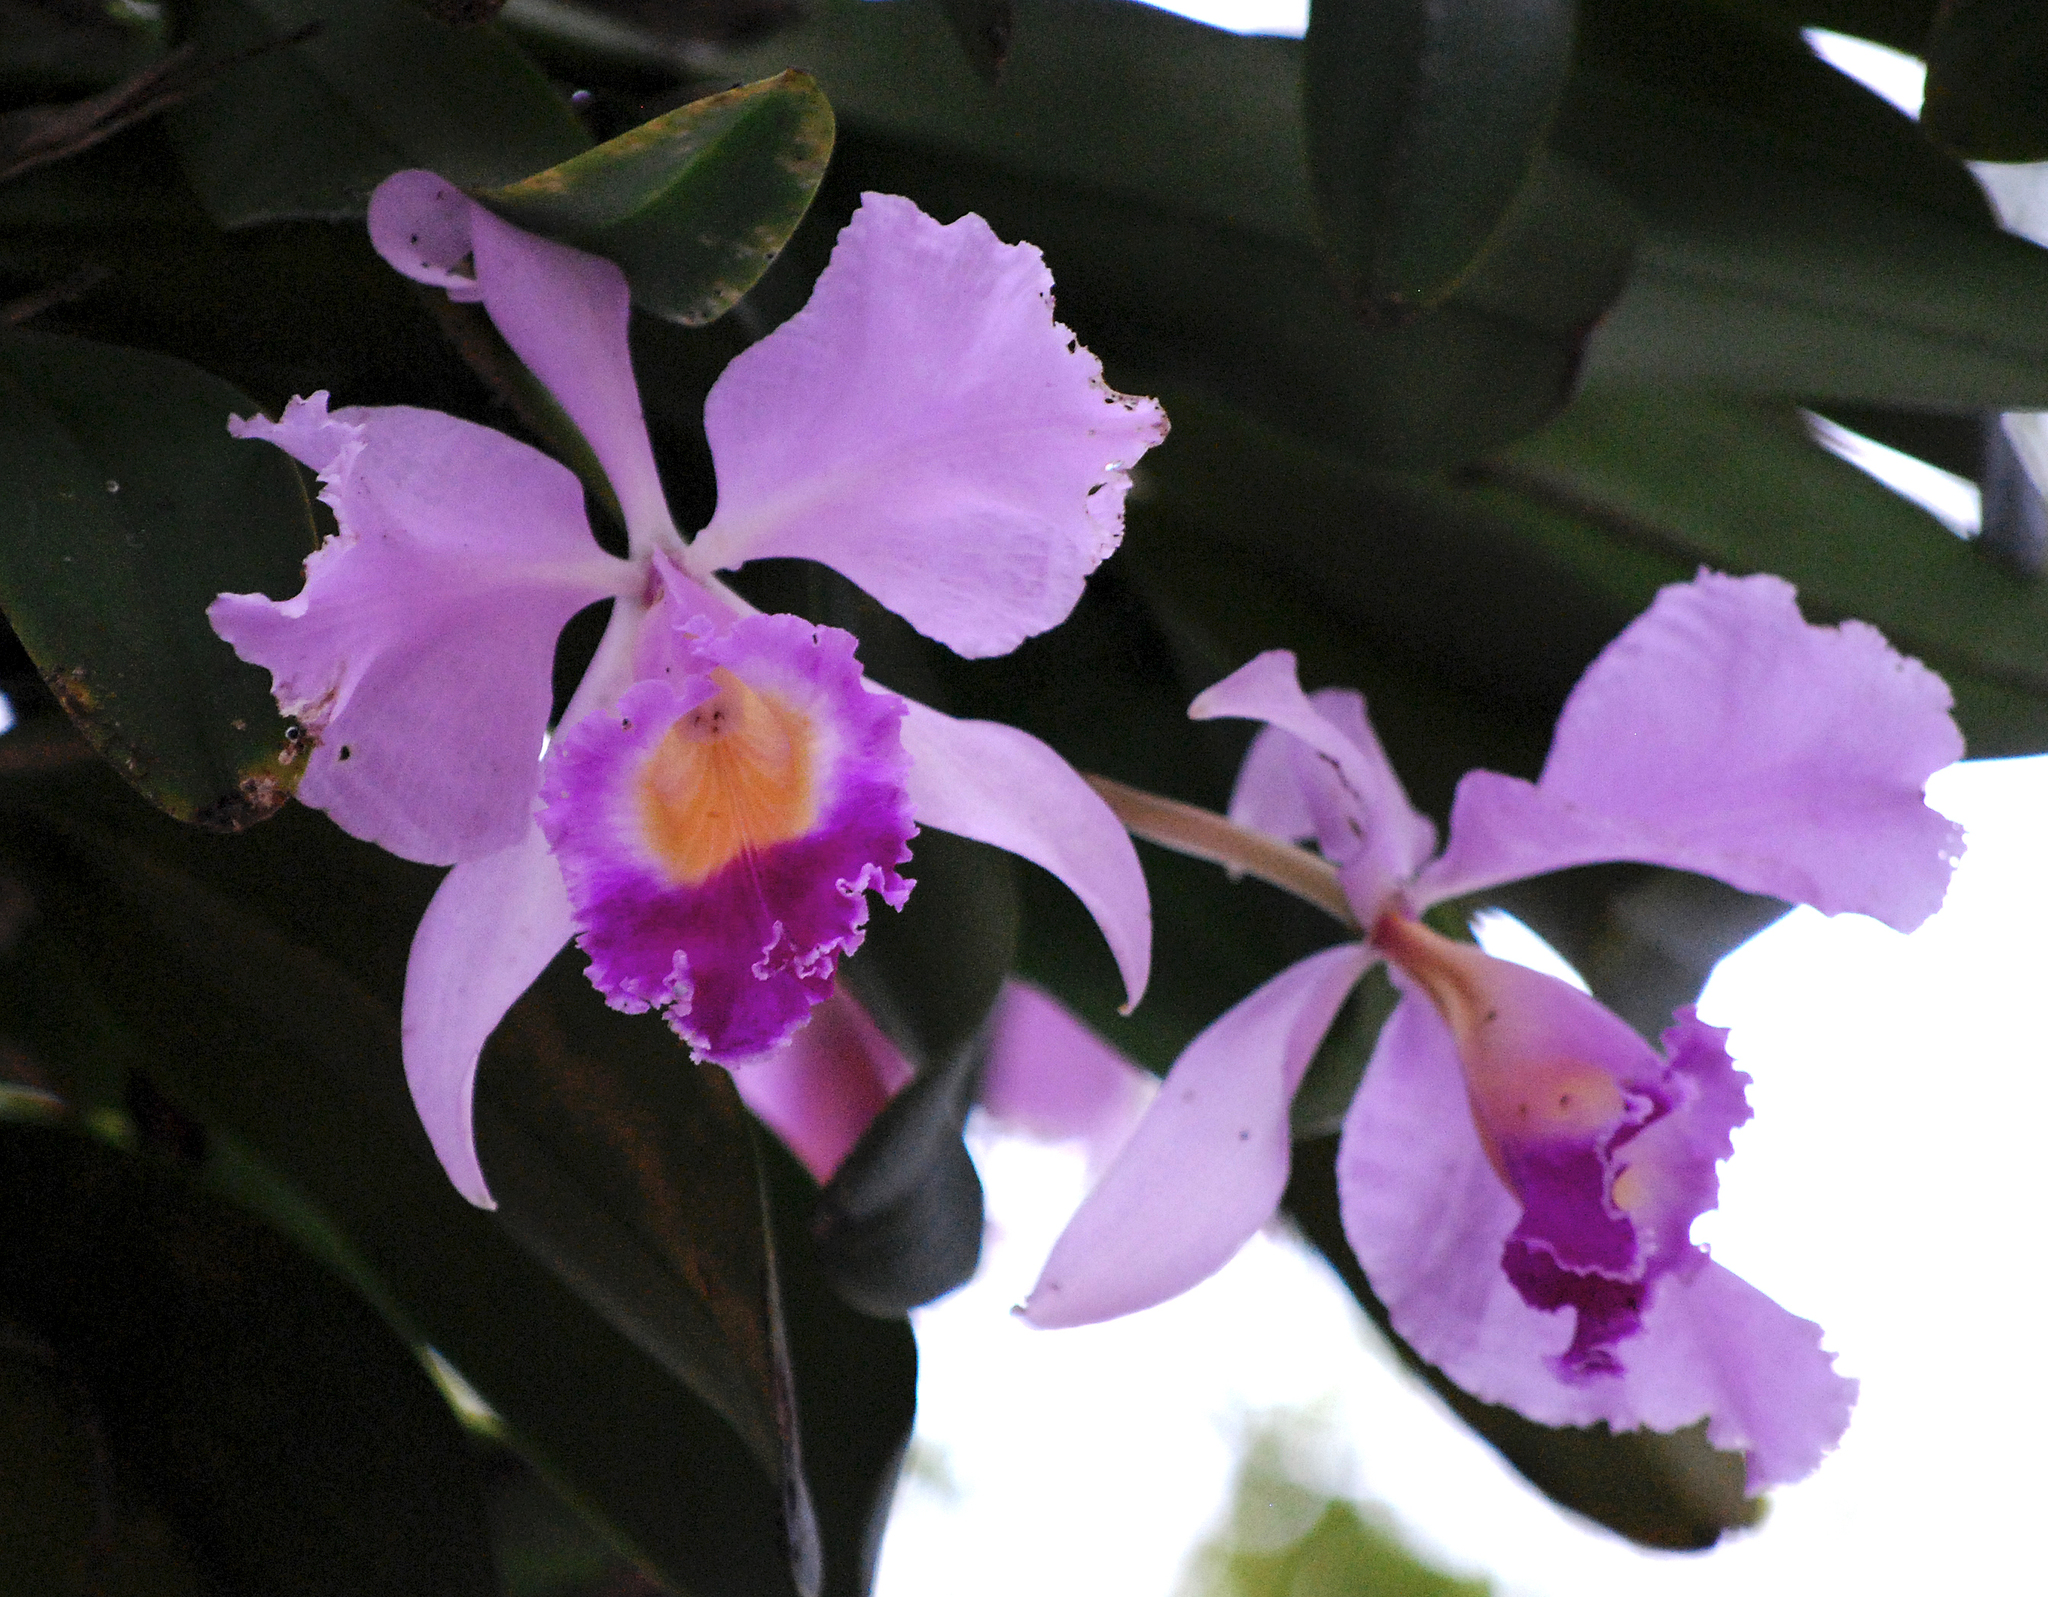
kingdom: Plantae
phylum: Tracheophyta
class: Liliopsida
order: Asparagales
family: Orchidaceae
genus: Cattleya
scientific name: Cattleya trianae
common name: Christmas orchid
